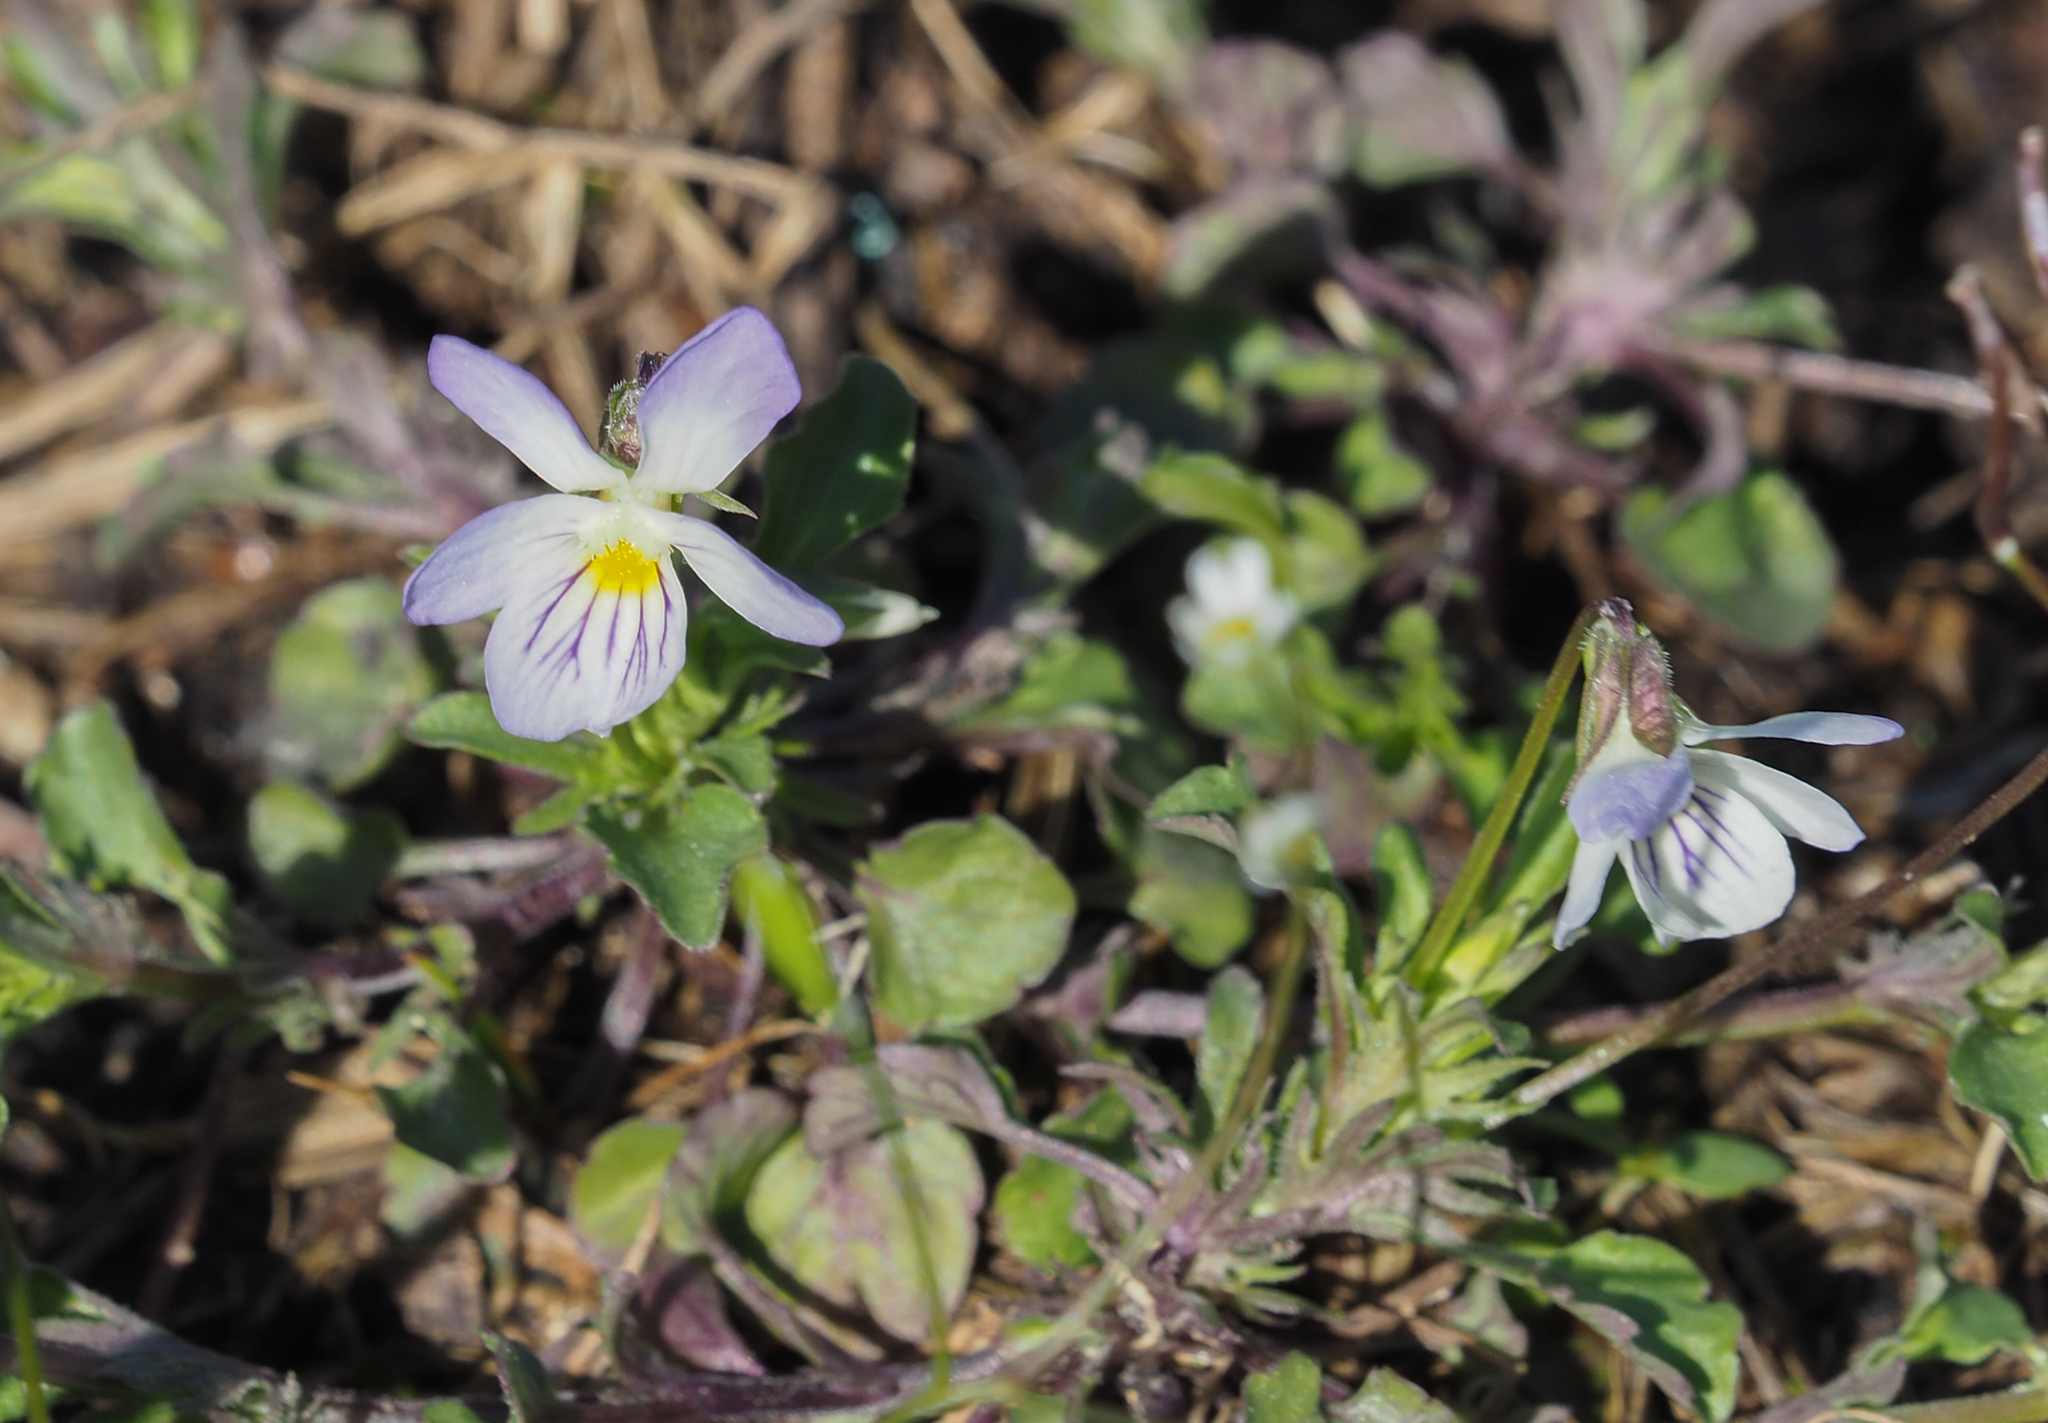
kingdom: Plantae
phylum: Tracheophyta
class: Magnoliopsida
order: Malpighiales
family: Violaceae
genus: Viola
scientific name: Viola rafinesquei
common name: American field pansy
